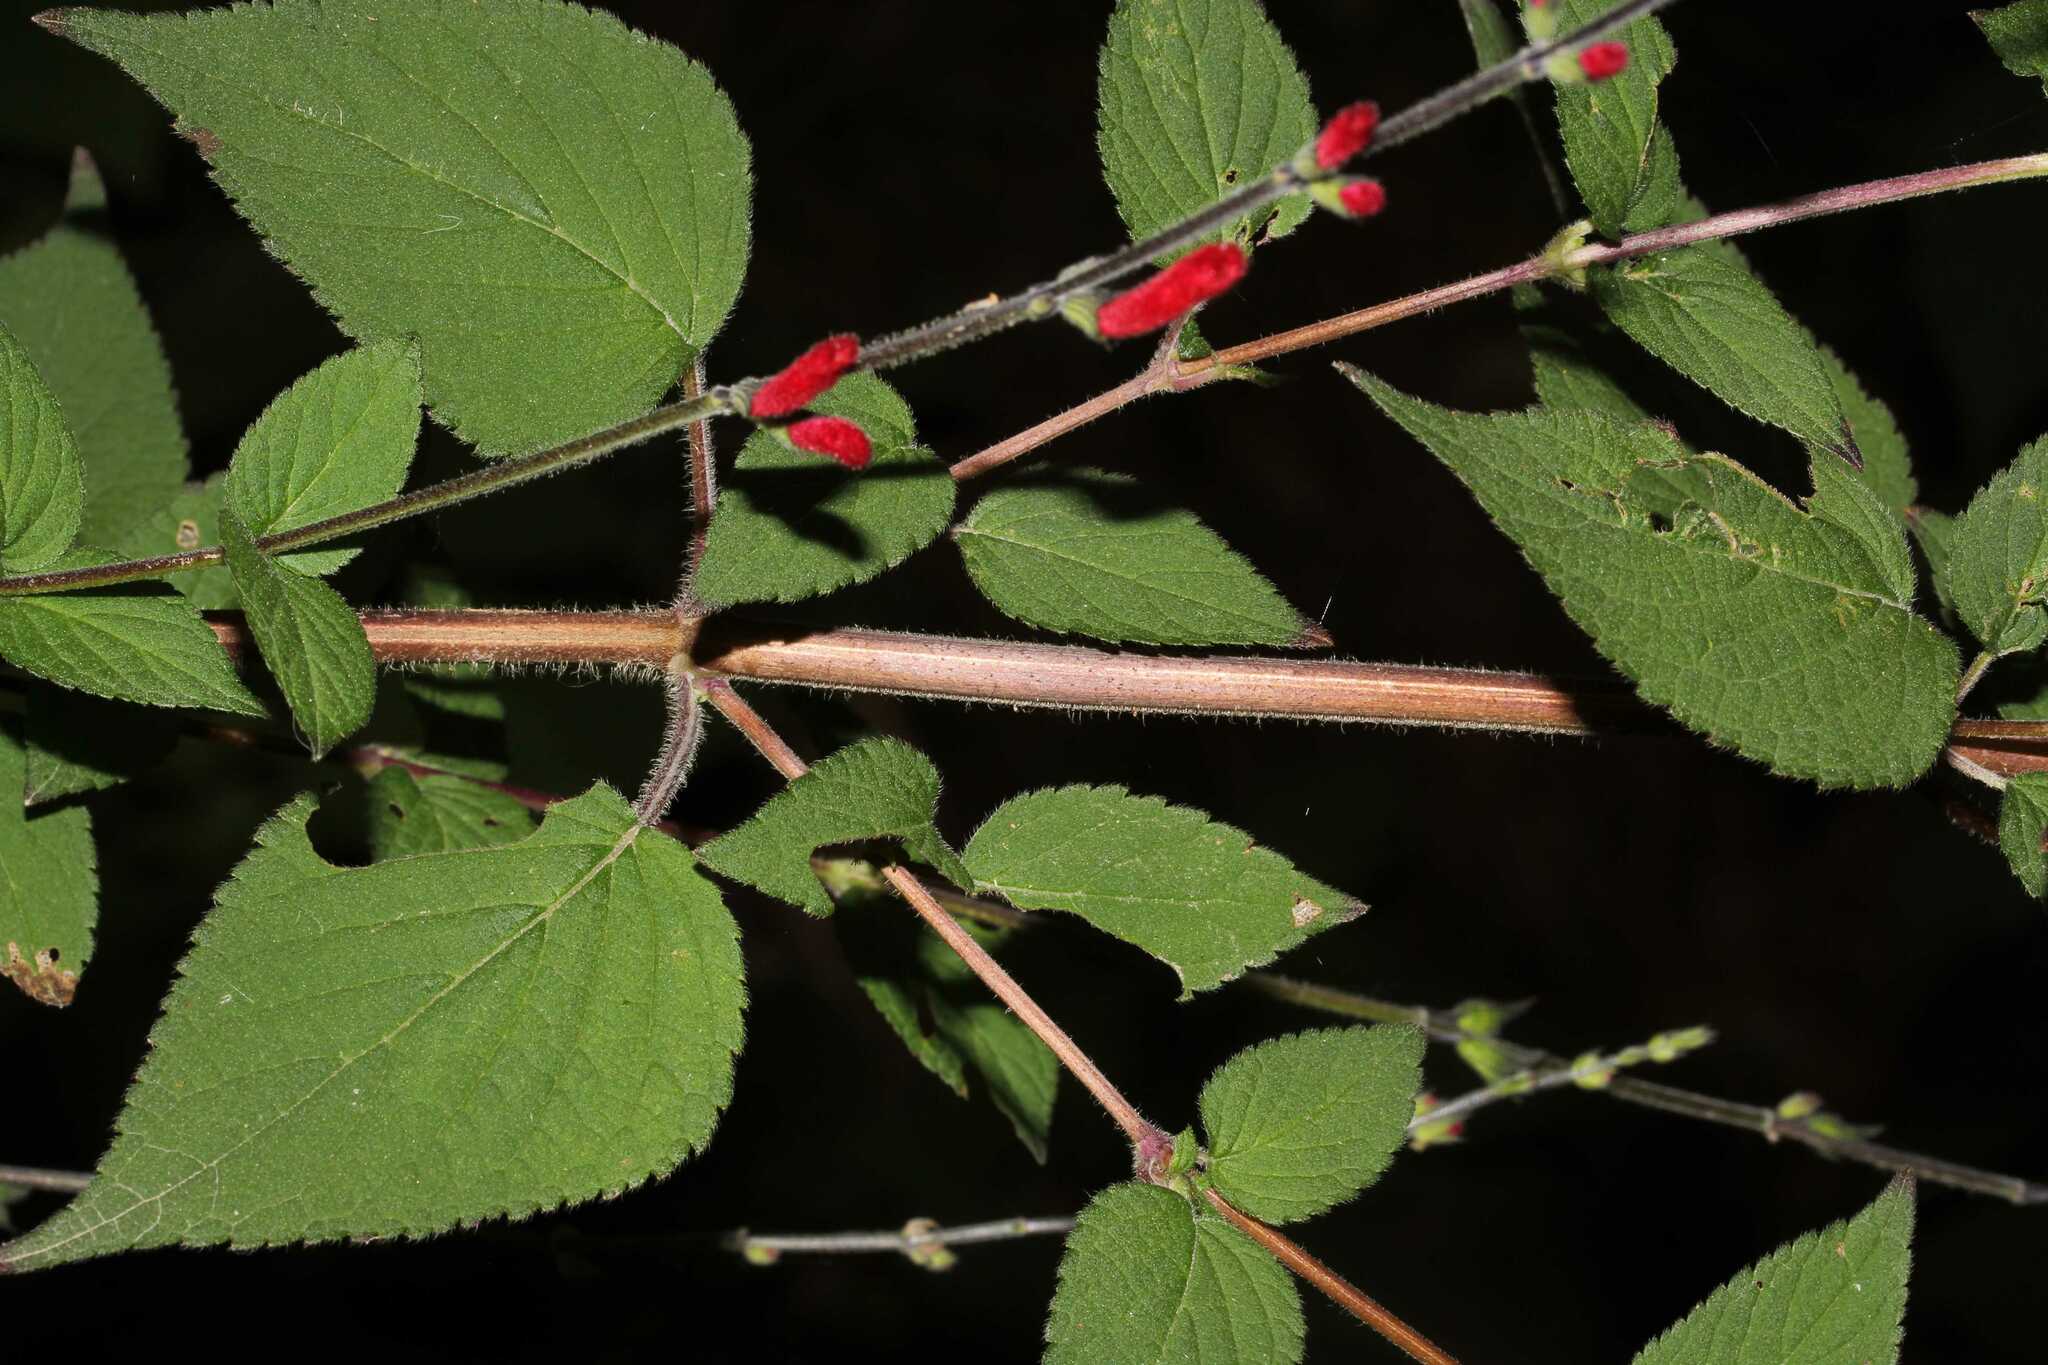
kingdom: Plantae
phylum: Tracheophyta
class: Magnoliopsida
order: Lamiales
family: Lamiaceae
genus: Salvia
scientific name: Salvia elegans
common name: Pineapple sage
